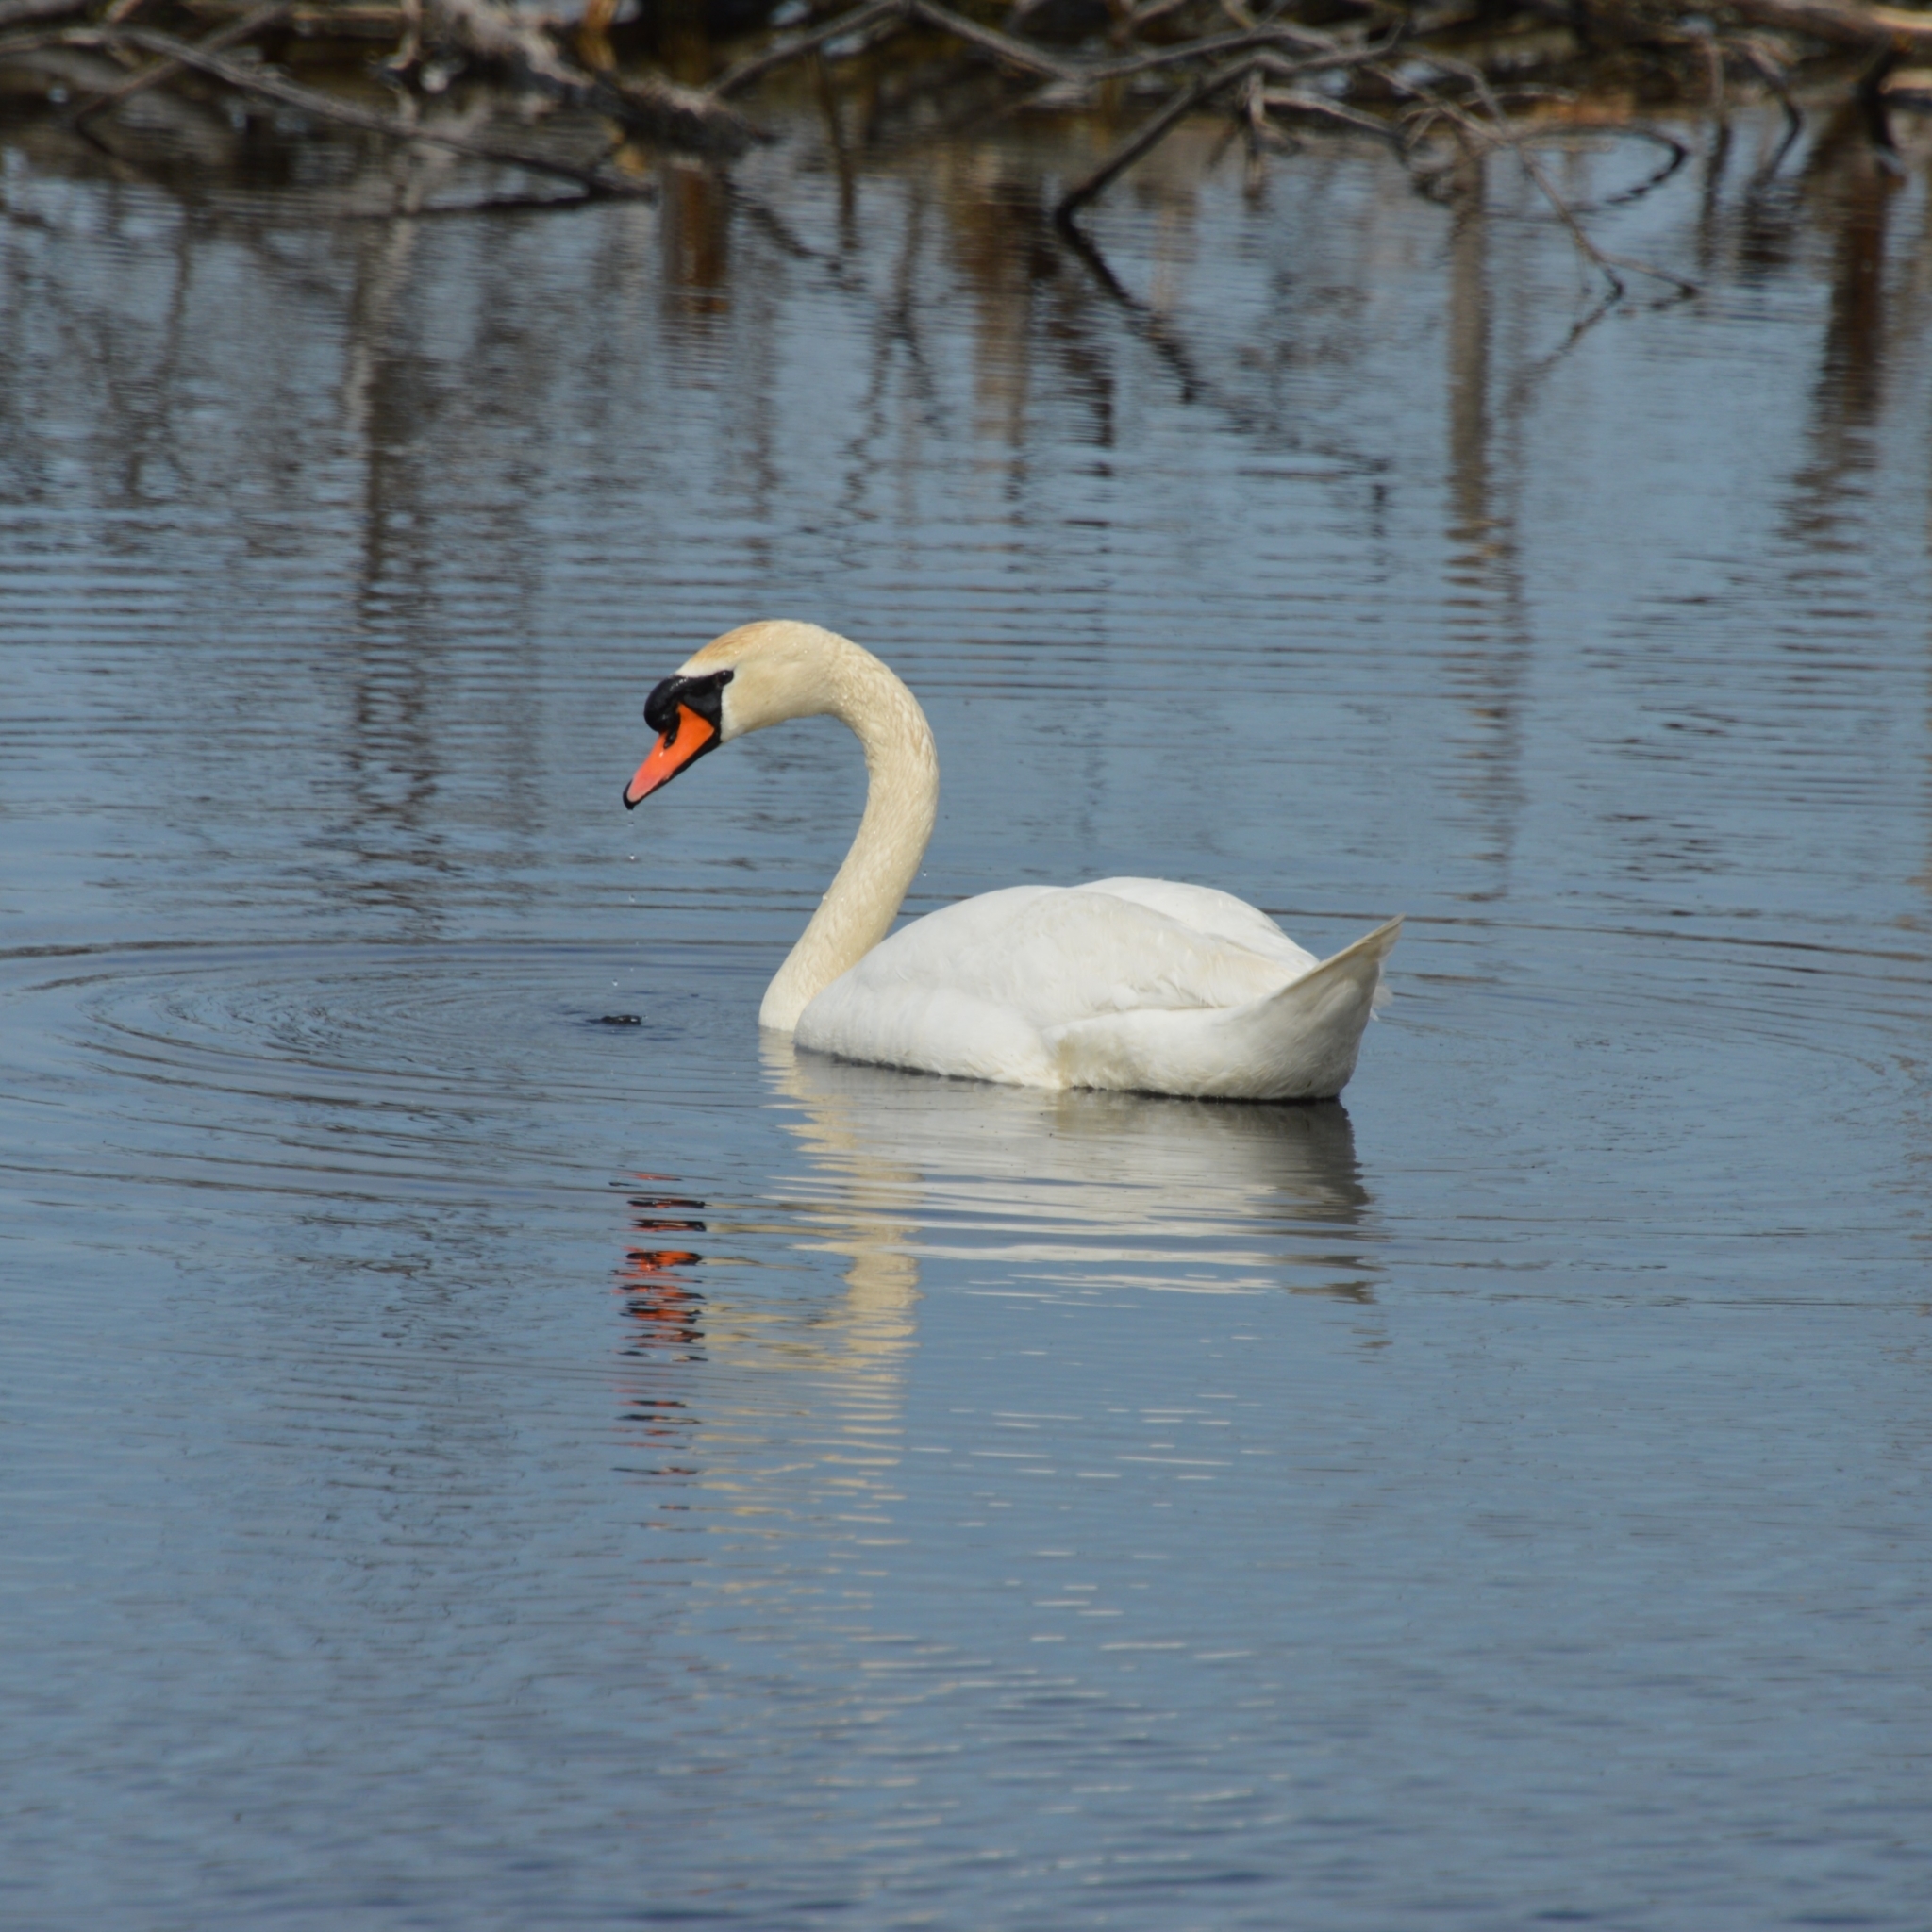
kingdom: Animalia
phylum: Chordata
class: Aves
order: Anseriformes
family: Anatidae
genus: Cygnus
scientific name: Cygnus olor
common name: Mute swan
